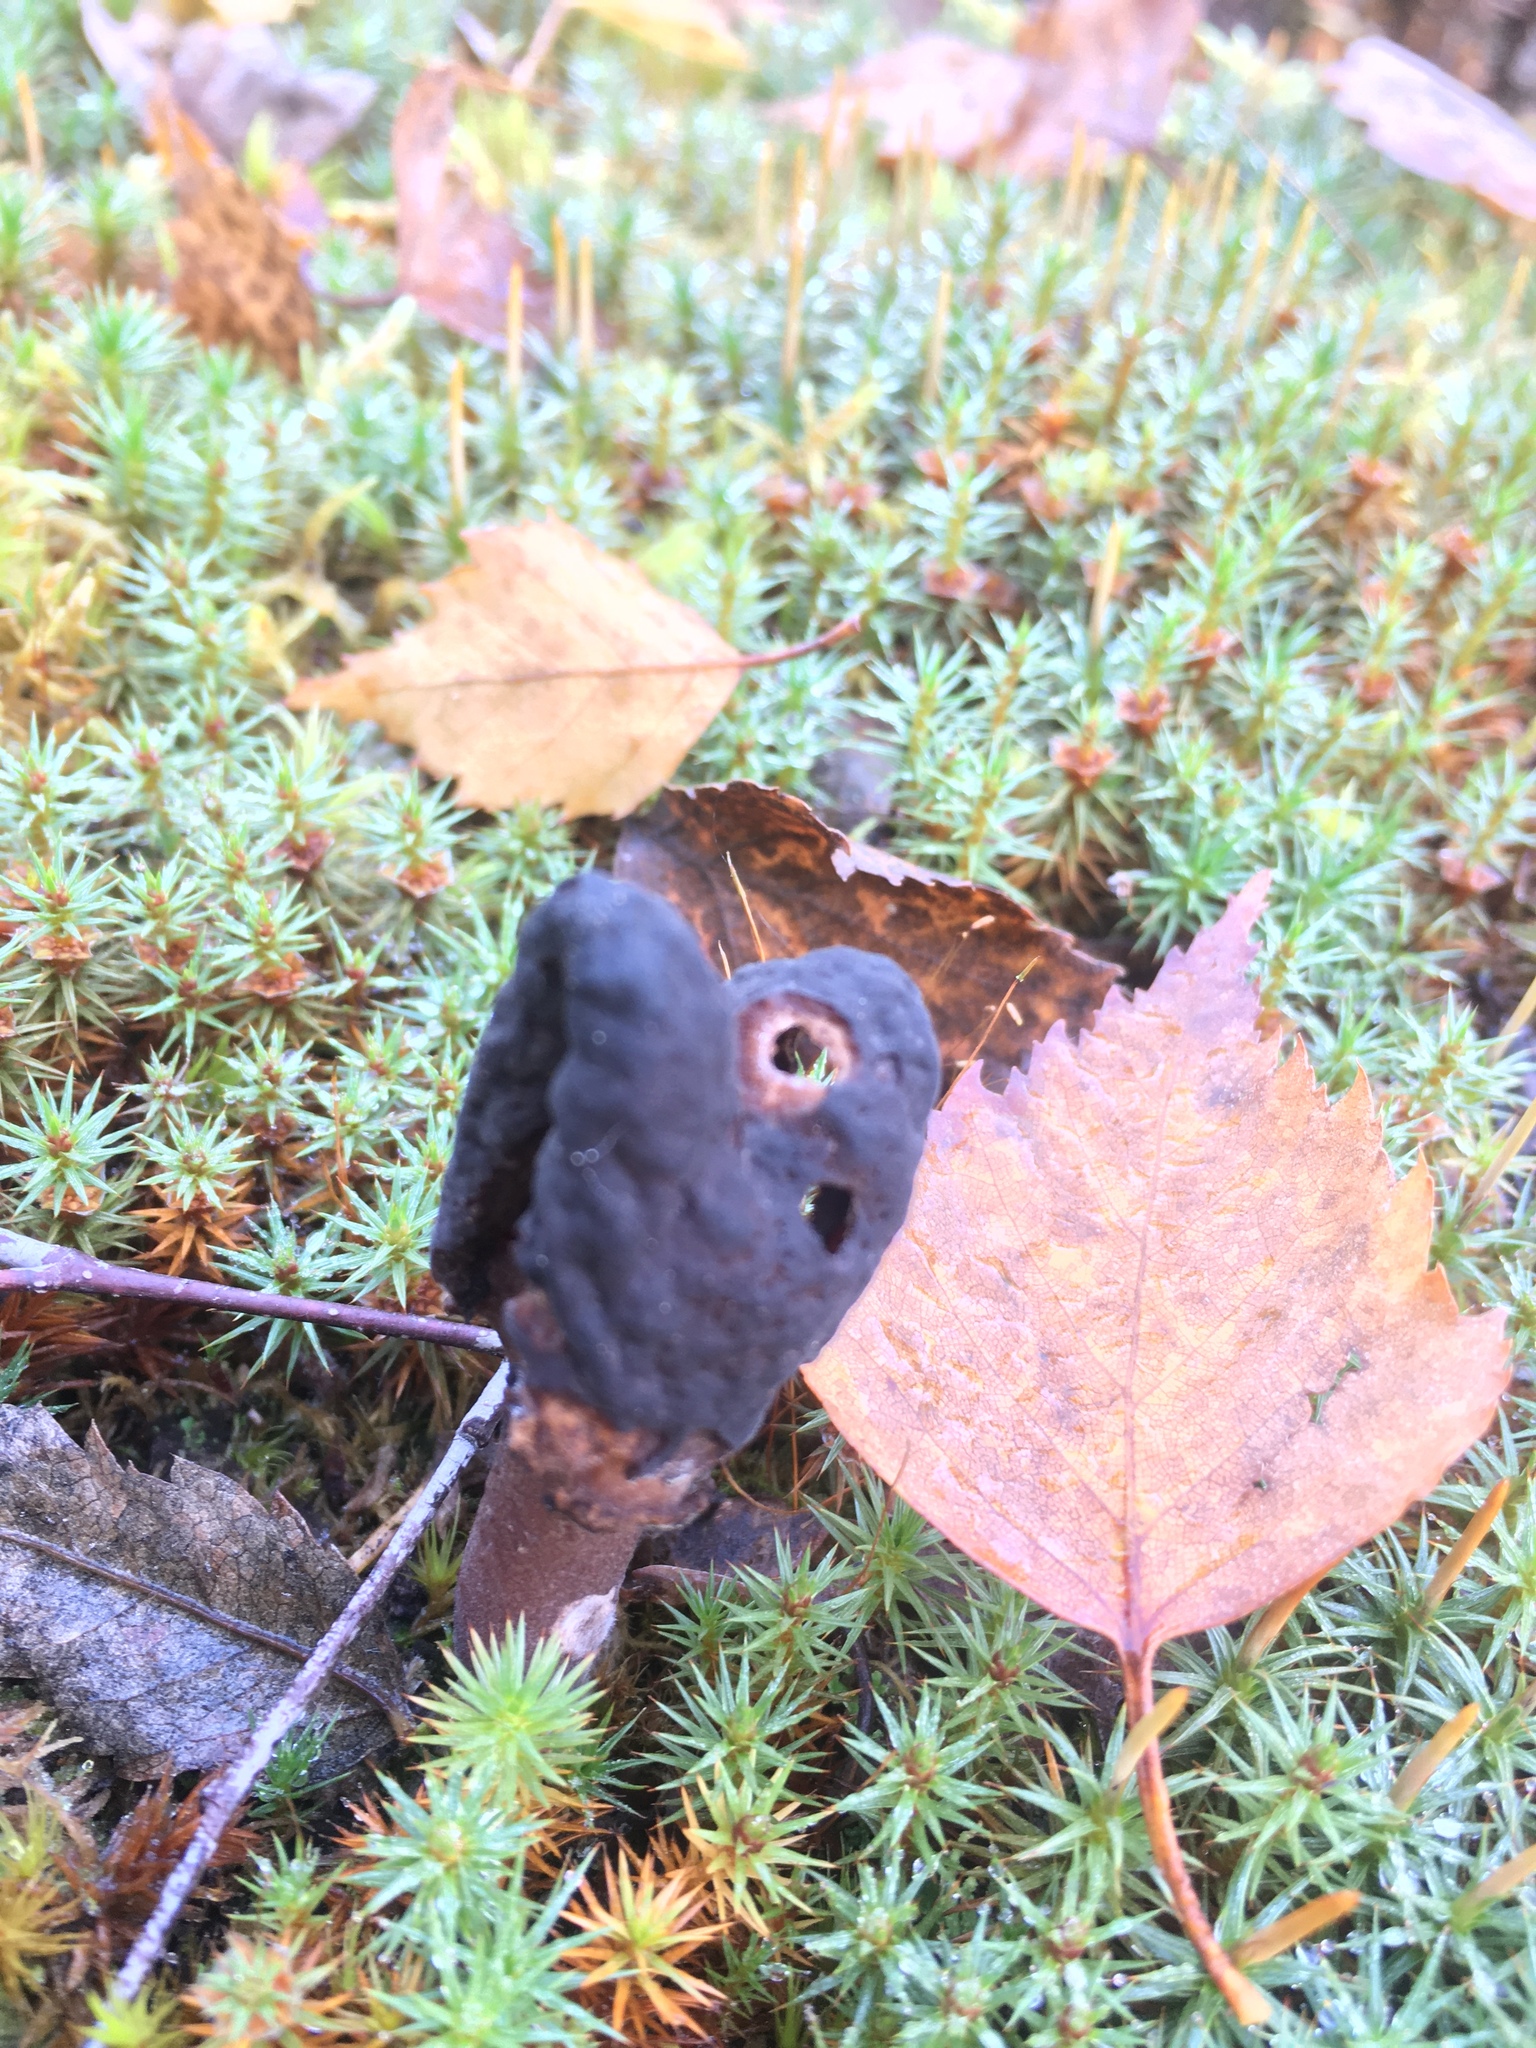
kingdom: Fungi
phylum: Ascomycota
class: Pezizomycetes
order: Pezizales
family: Discinaceae
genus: Gyromitra
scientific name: Gyromitra infula
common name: Pouched false morel
